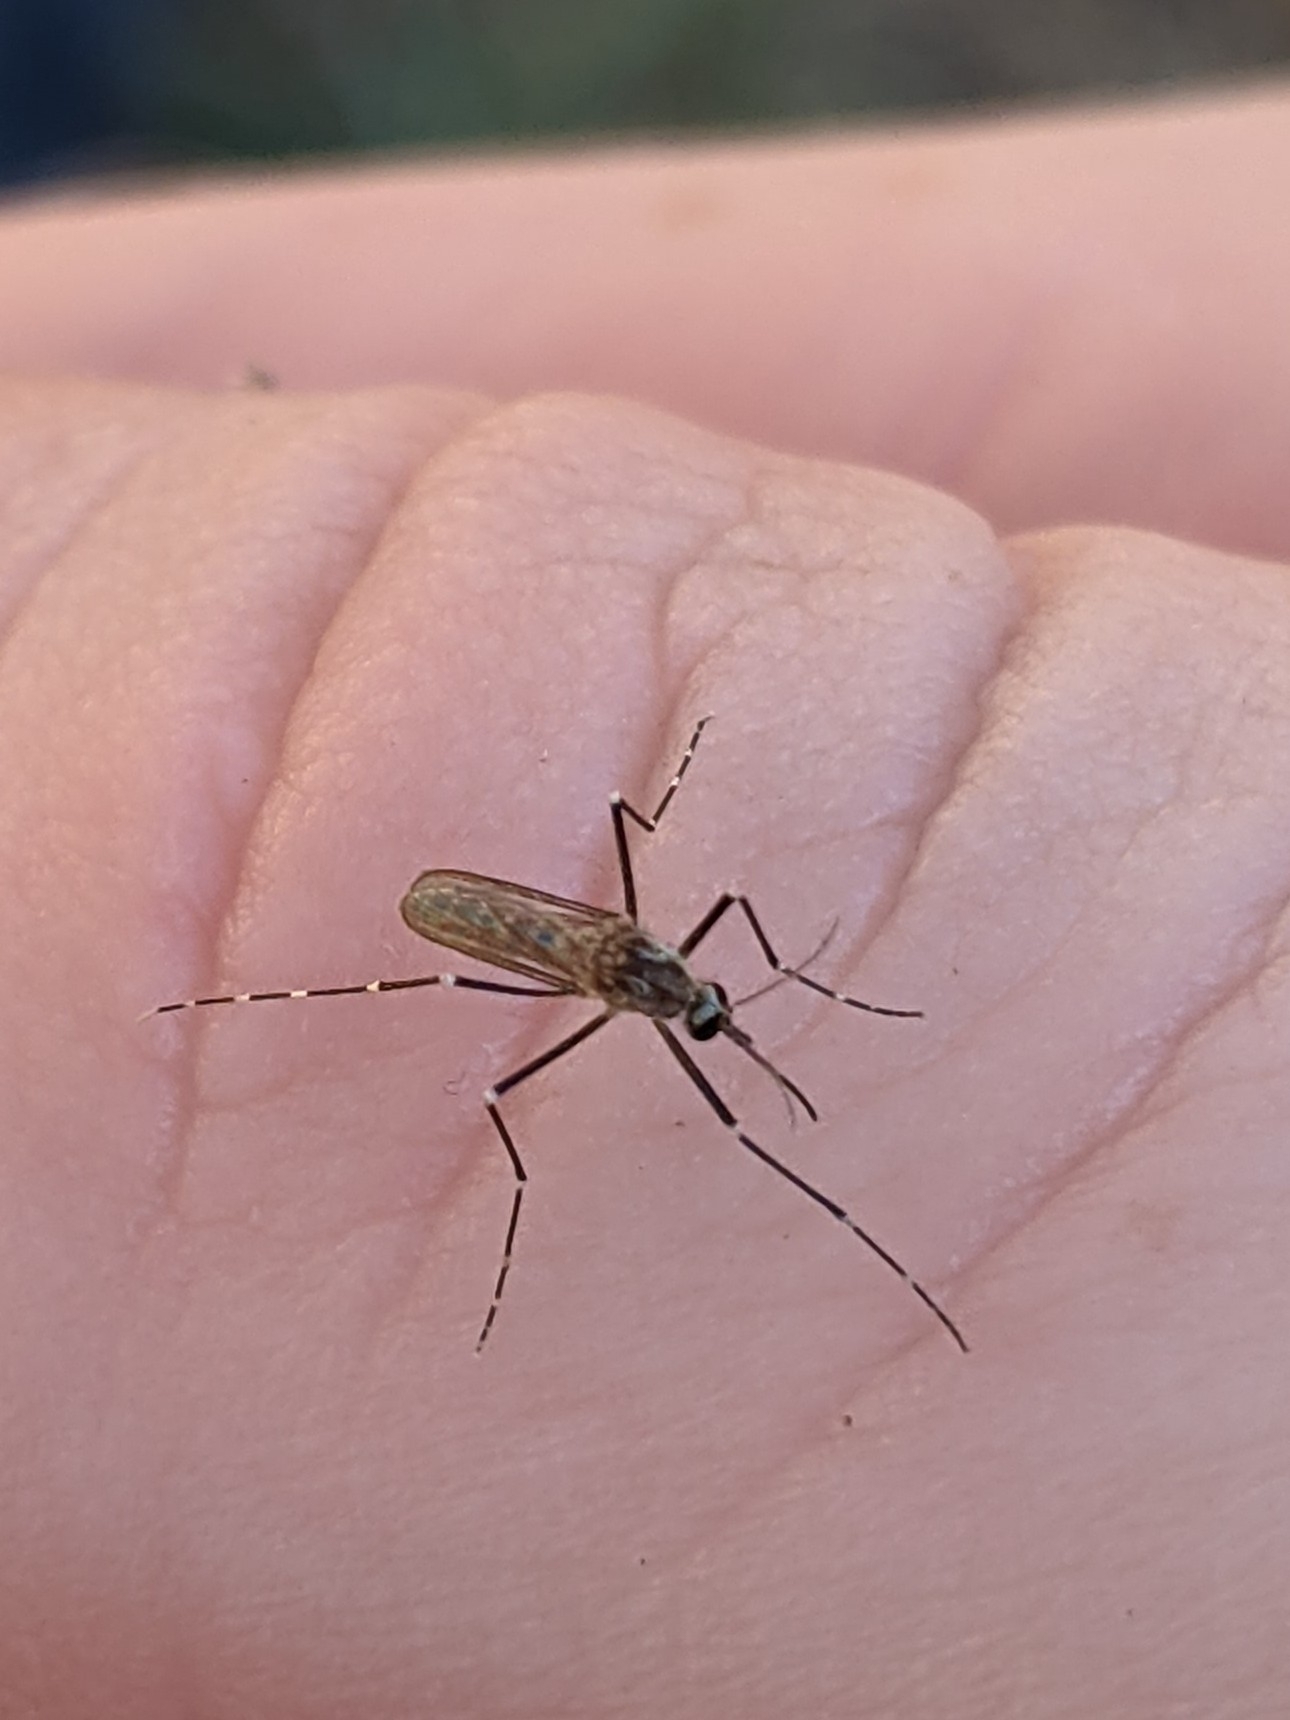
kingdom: Animalia
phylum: Arthropoda
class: Insecta
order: Diptera
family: Culicidae
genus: Aedes
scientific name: Aedes epactius
